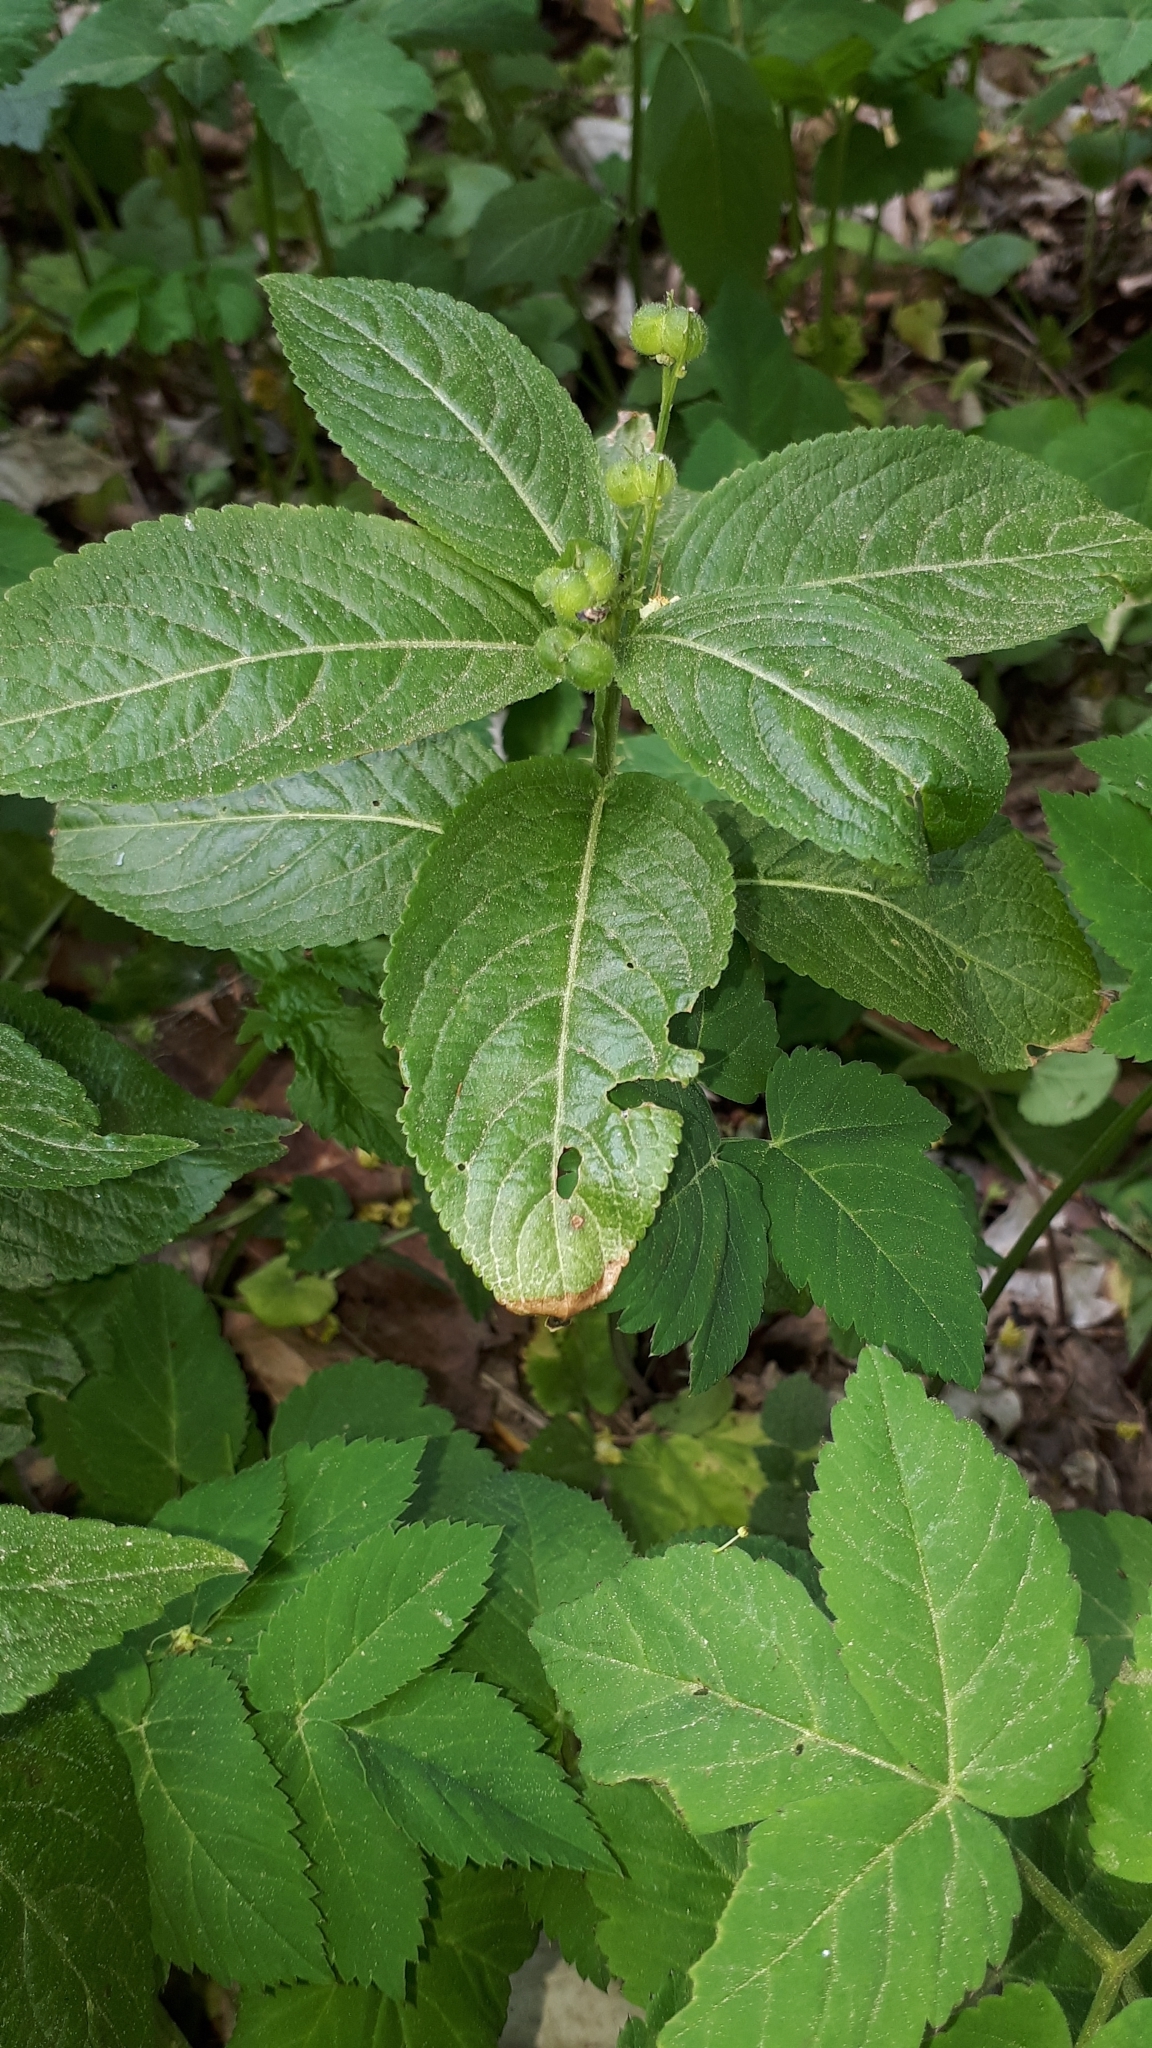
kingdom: Plantae
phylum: Tracheophyta
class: Magnoliopsida
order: Malpighiales
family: Euphorbiaceae
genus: Mercurialis
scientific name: Mercurialis perennis
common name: Dog mercury
